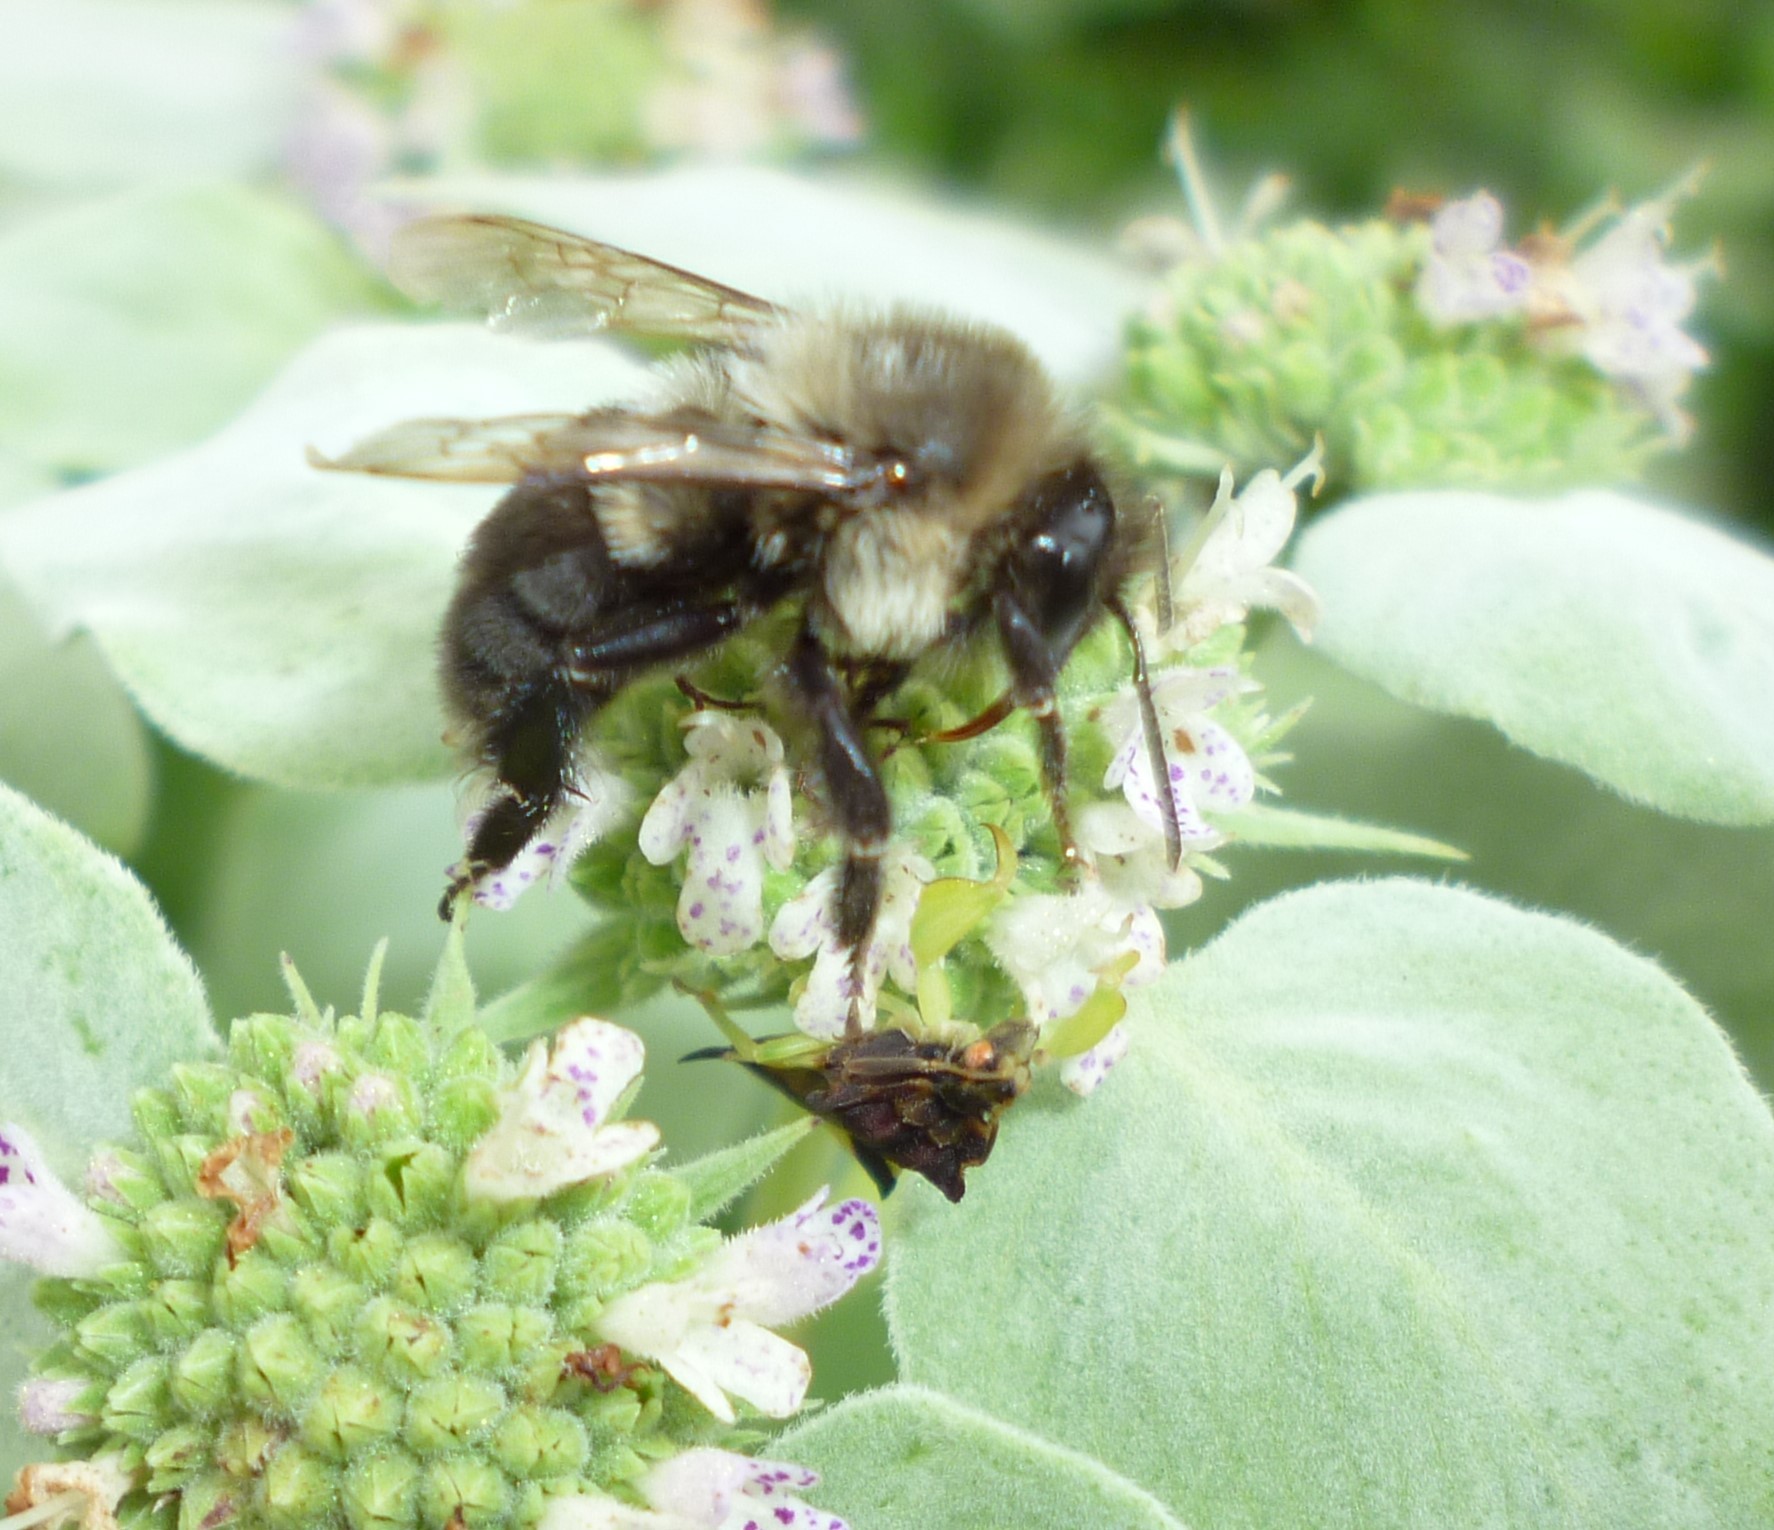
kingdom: Animalia
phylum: Arthropoda
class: Insecta
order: Hymenoptera
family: Apidae
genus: Bombus
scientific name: Bombus impatiens
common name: Common eastern bumble bee
